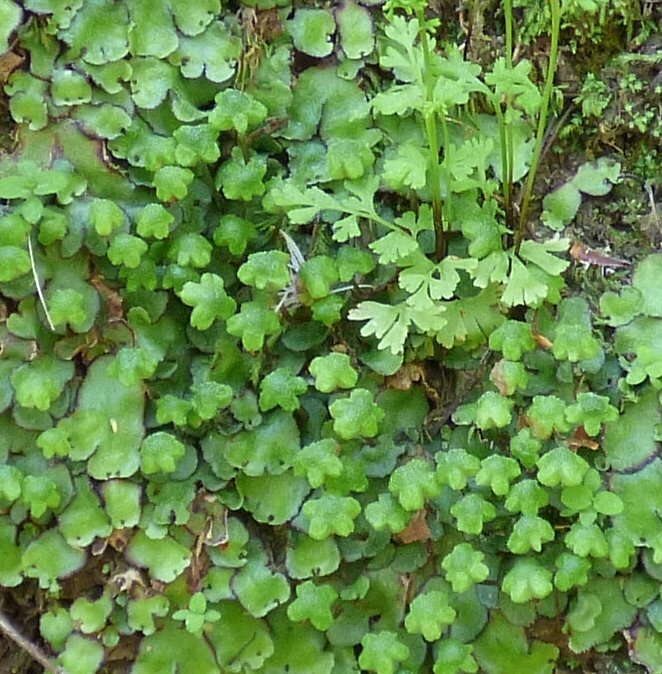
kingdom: Plantae
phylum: Marchantiophyta
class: Marchantiopsida
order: Marchantiales
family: Aytoniaceae
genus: Reboulia
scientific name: Reboulia hemisphaerica
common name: Purple-margined liverwort
